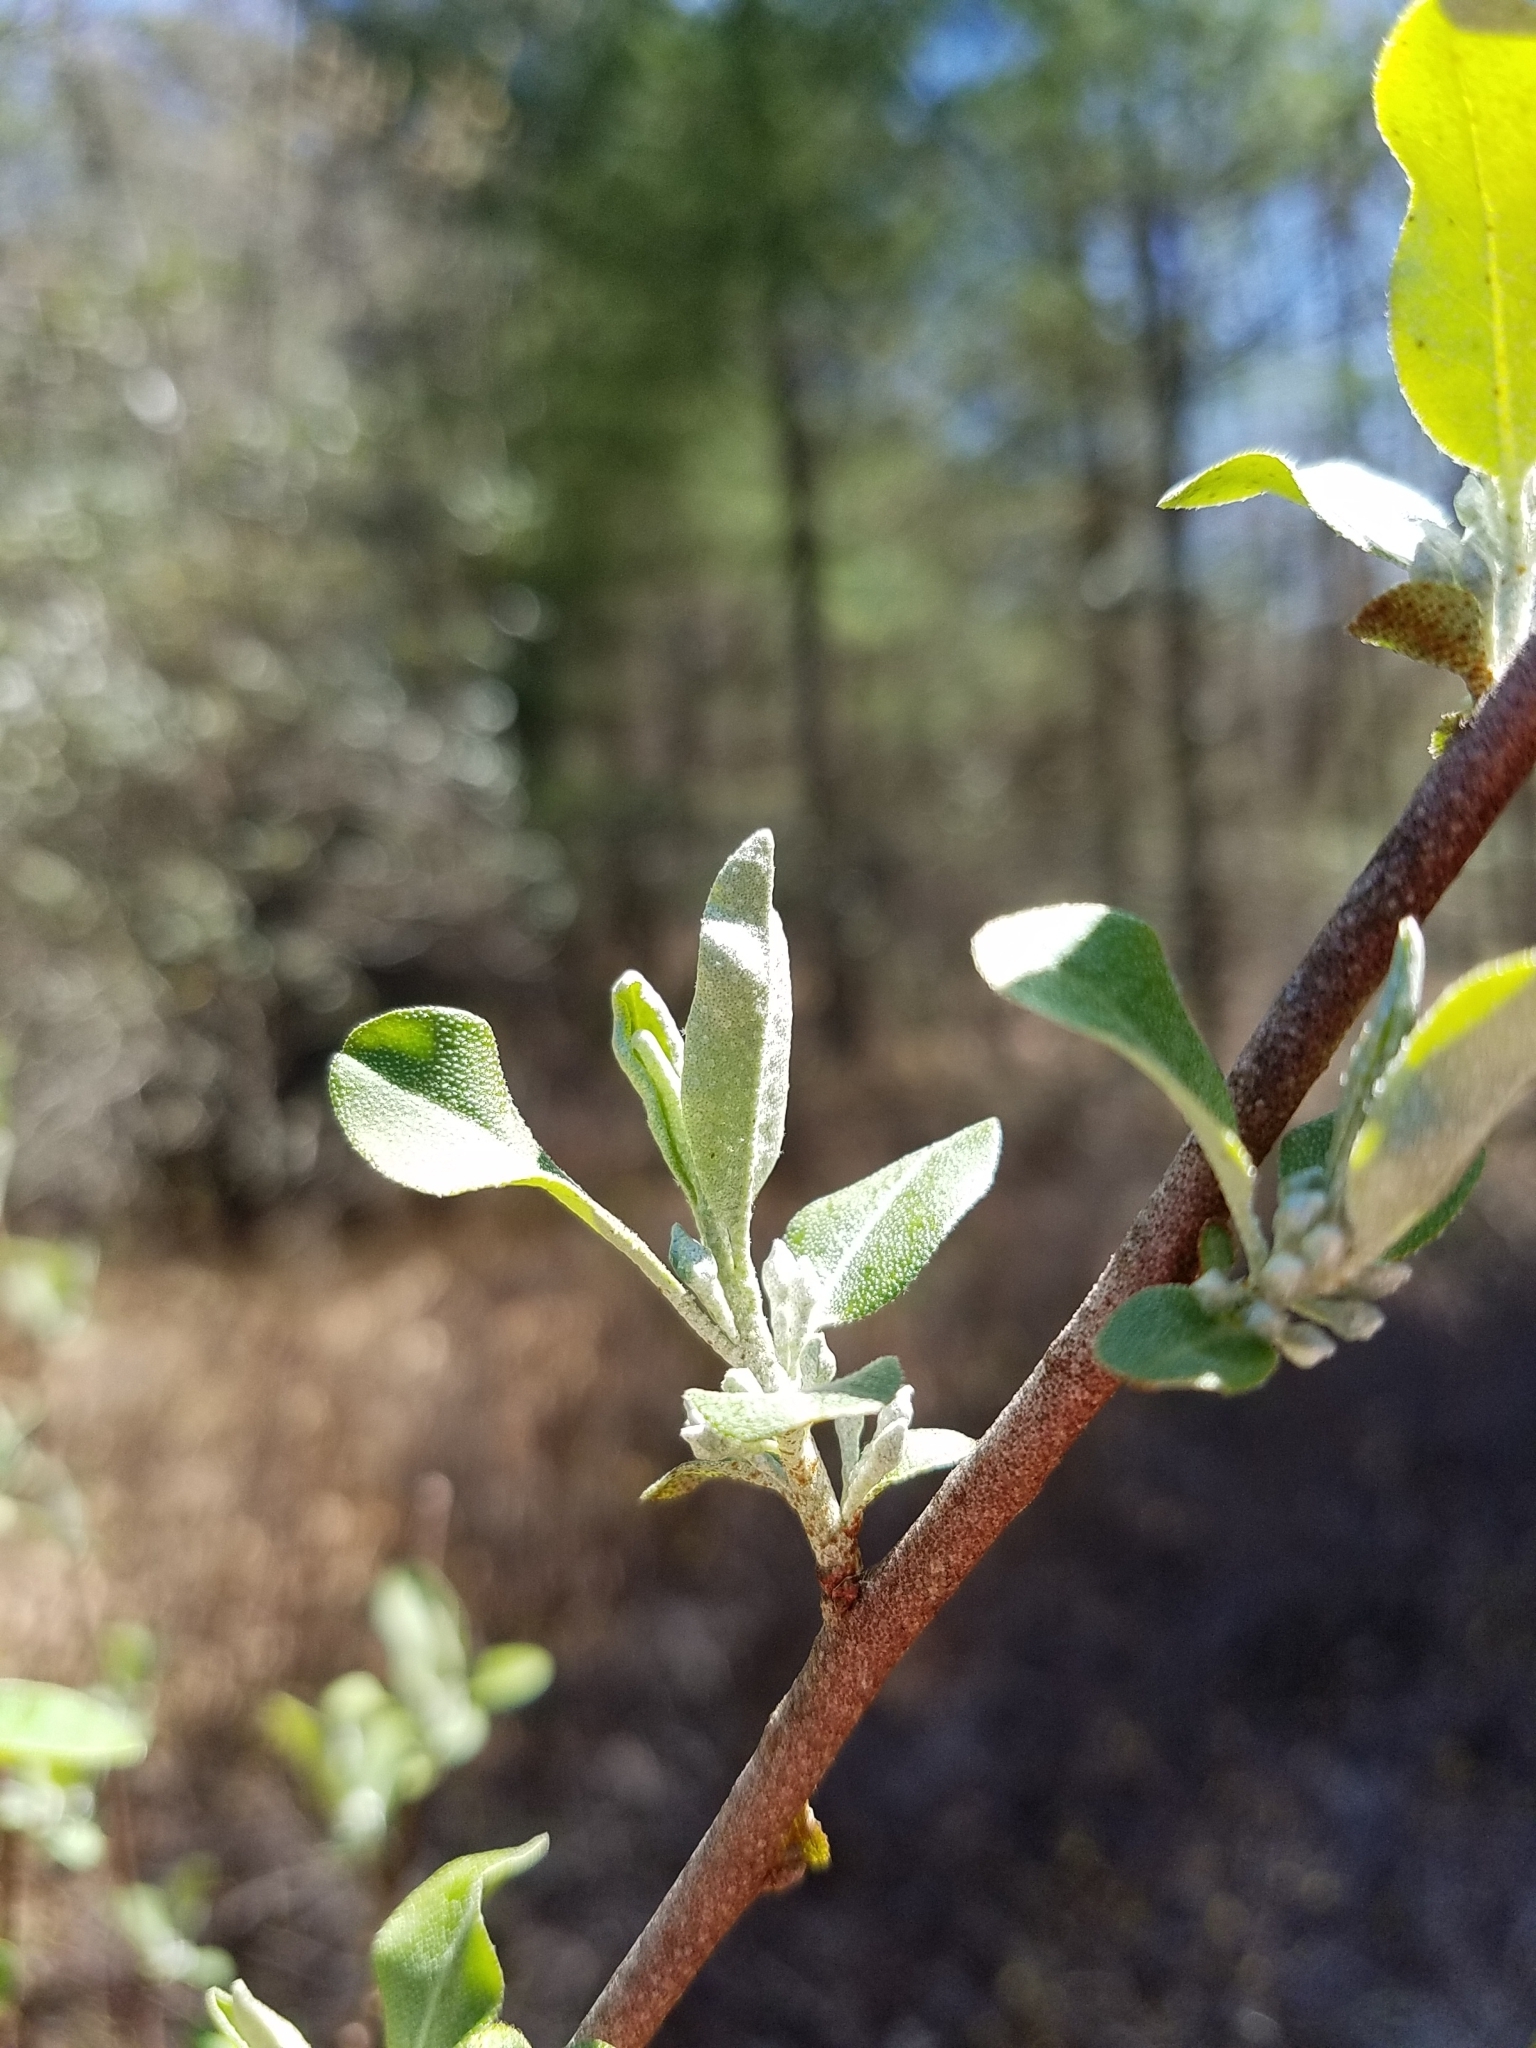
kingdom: Plantae
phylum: Tracheophyta
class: Magnoliopsida
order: Rosales
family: Elaeagnaceae
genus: Elaeagnus
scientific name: Elaeagnus umbellata
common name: Autumn olive
